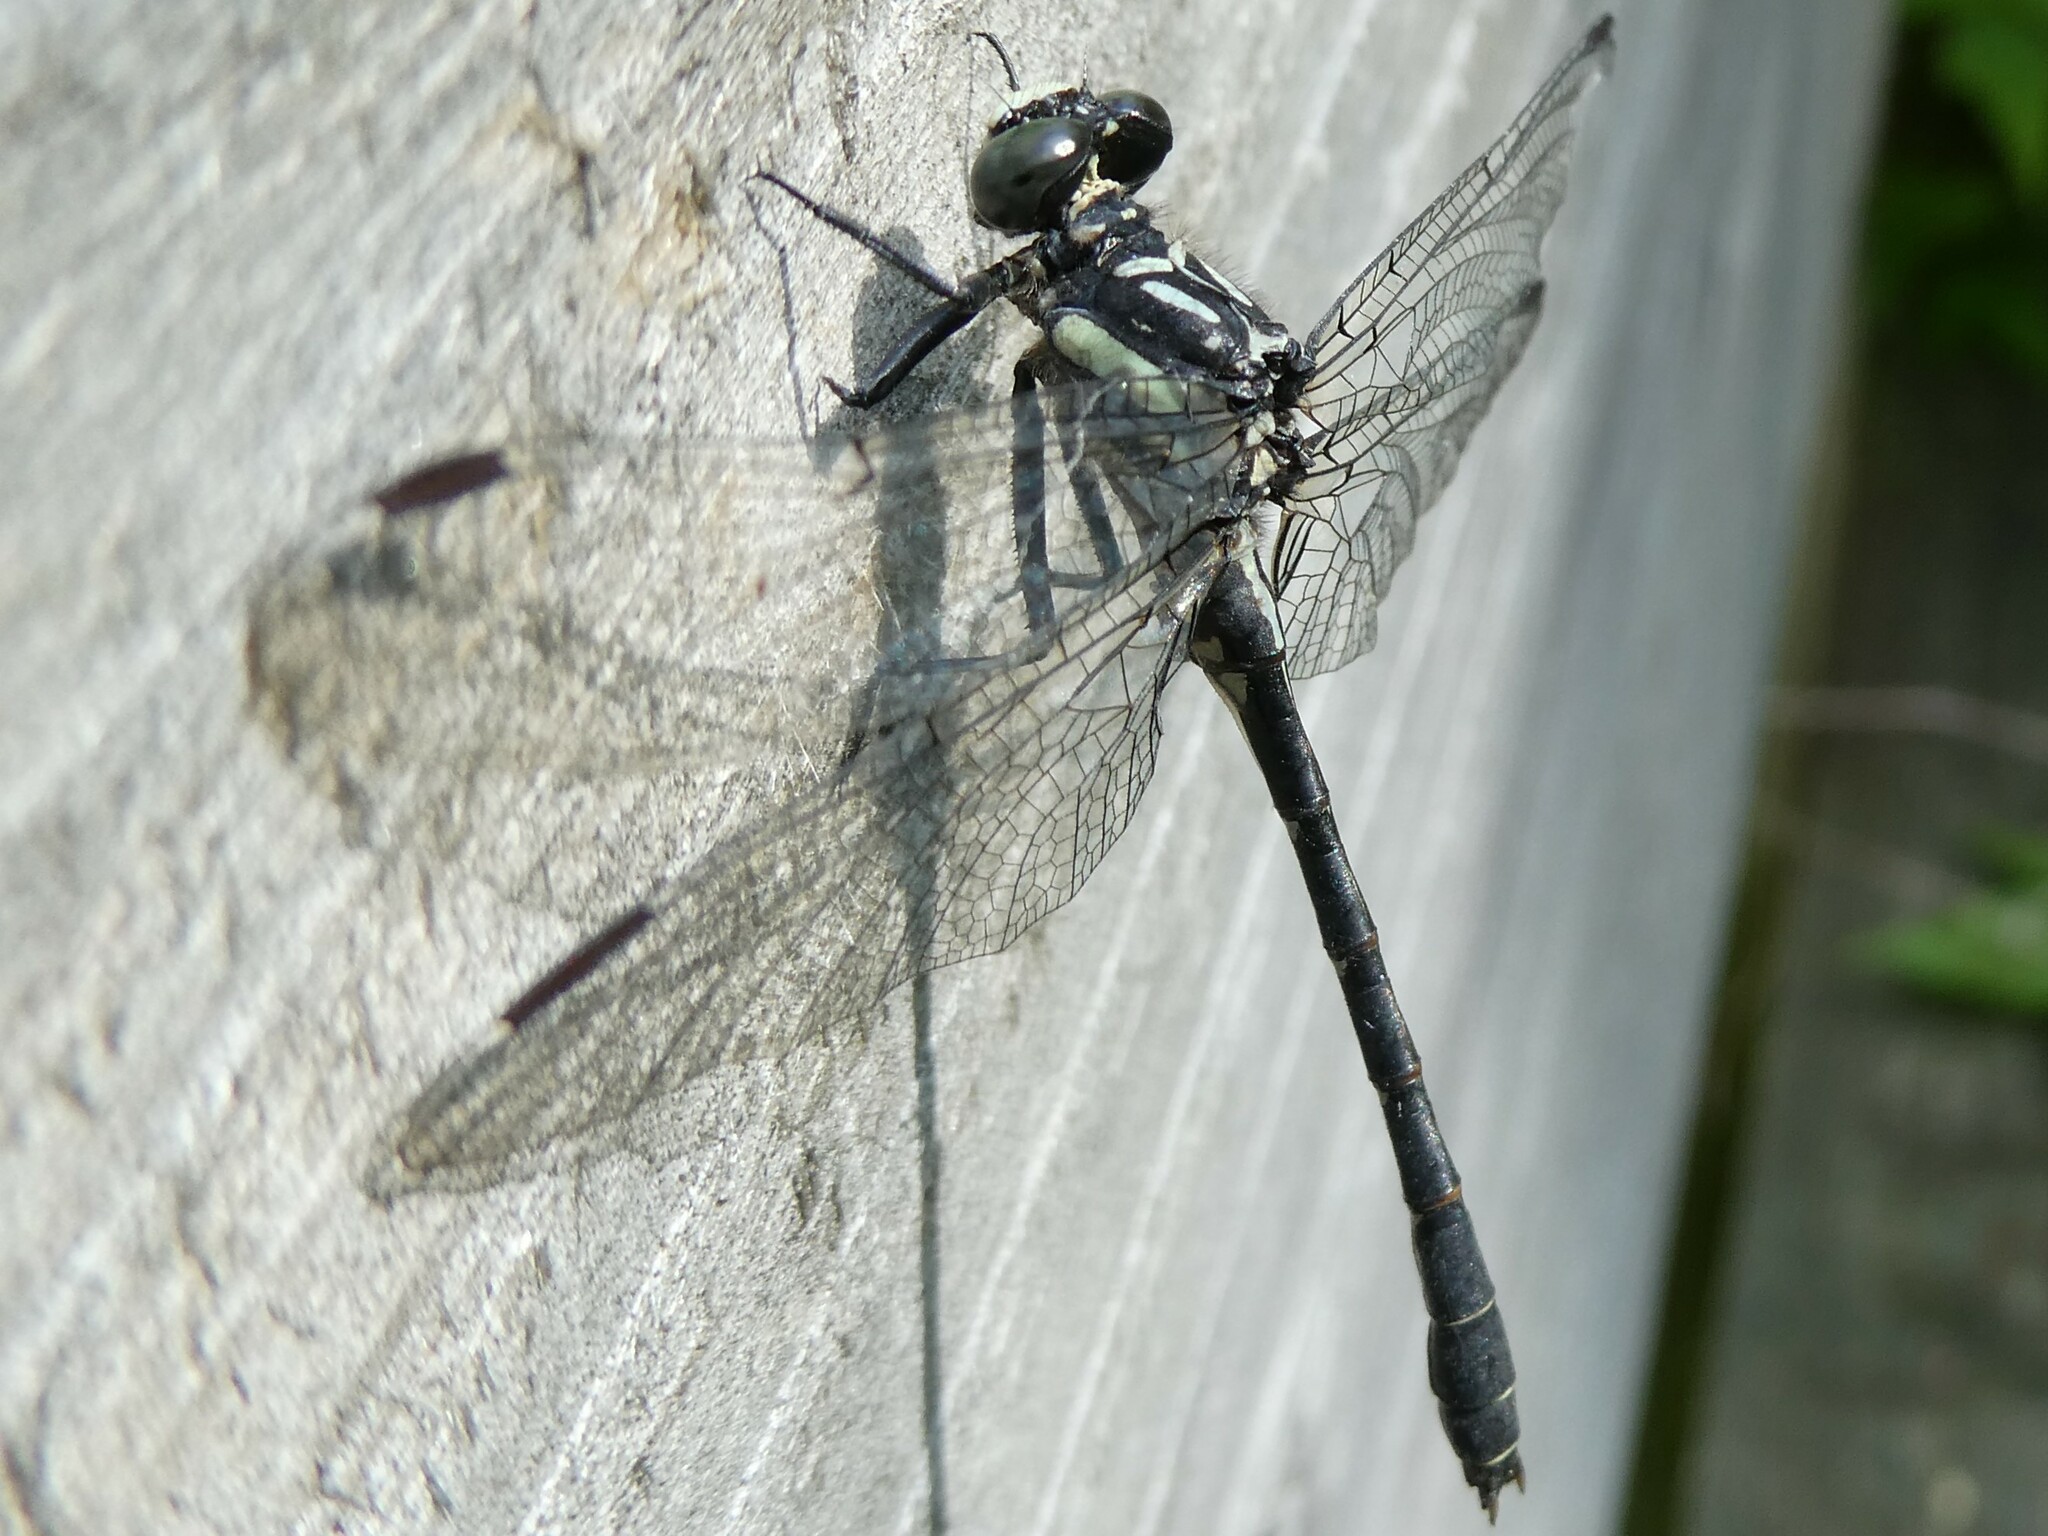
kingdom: Animalia
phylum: Arthropoda
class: Insecta
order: Odonata
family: Gomphidae
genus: Lanthus
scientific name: Lanthus parvulus
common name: Northern pygmy clubtail
